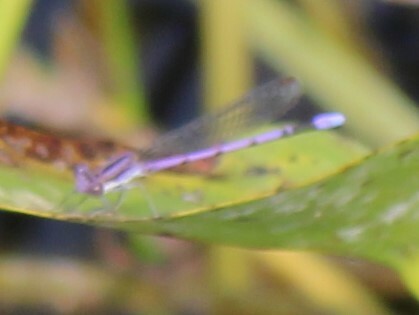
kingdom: Animalia
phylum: Arthropoda
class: Insecta
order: Odonata
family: Coenagrionidae
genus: Argia
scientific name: Argia fumipennis
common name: Variable dancer
